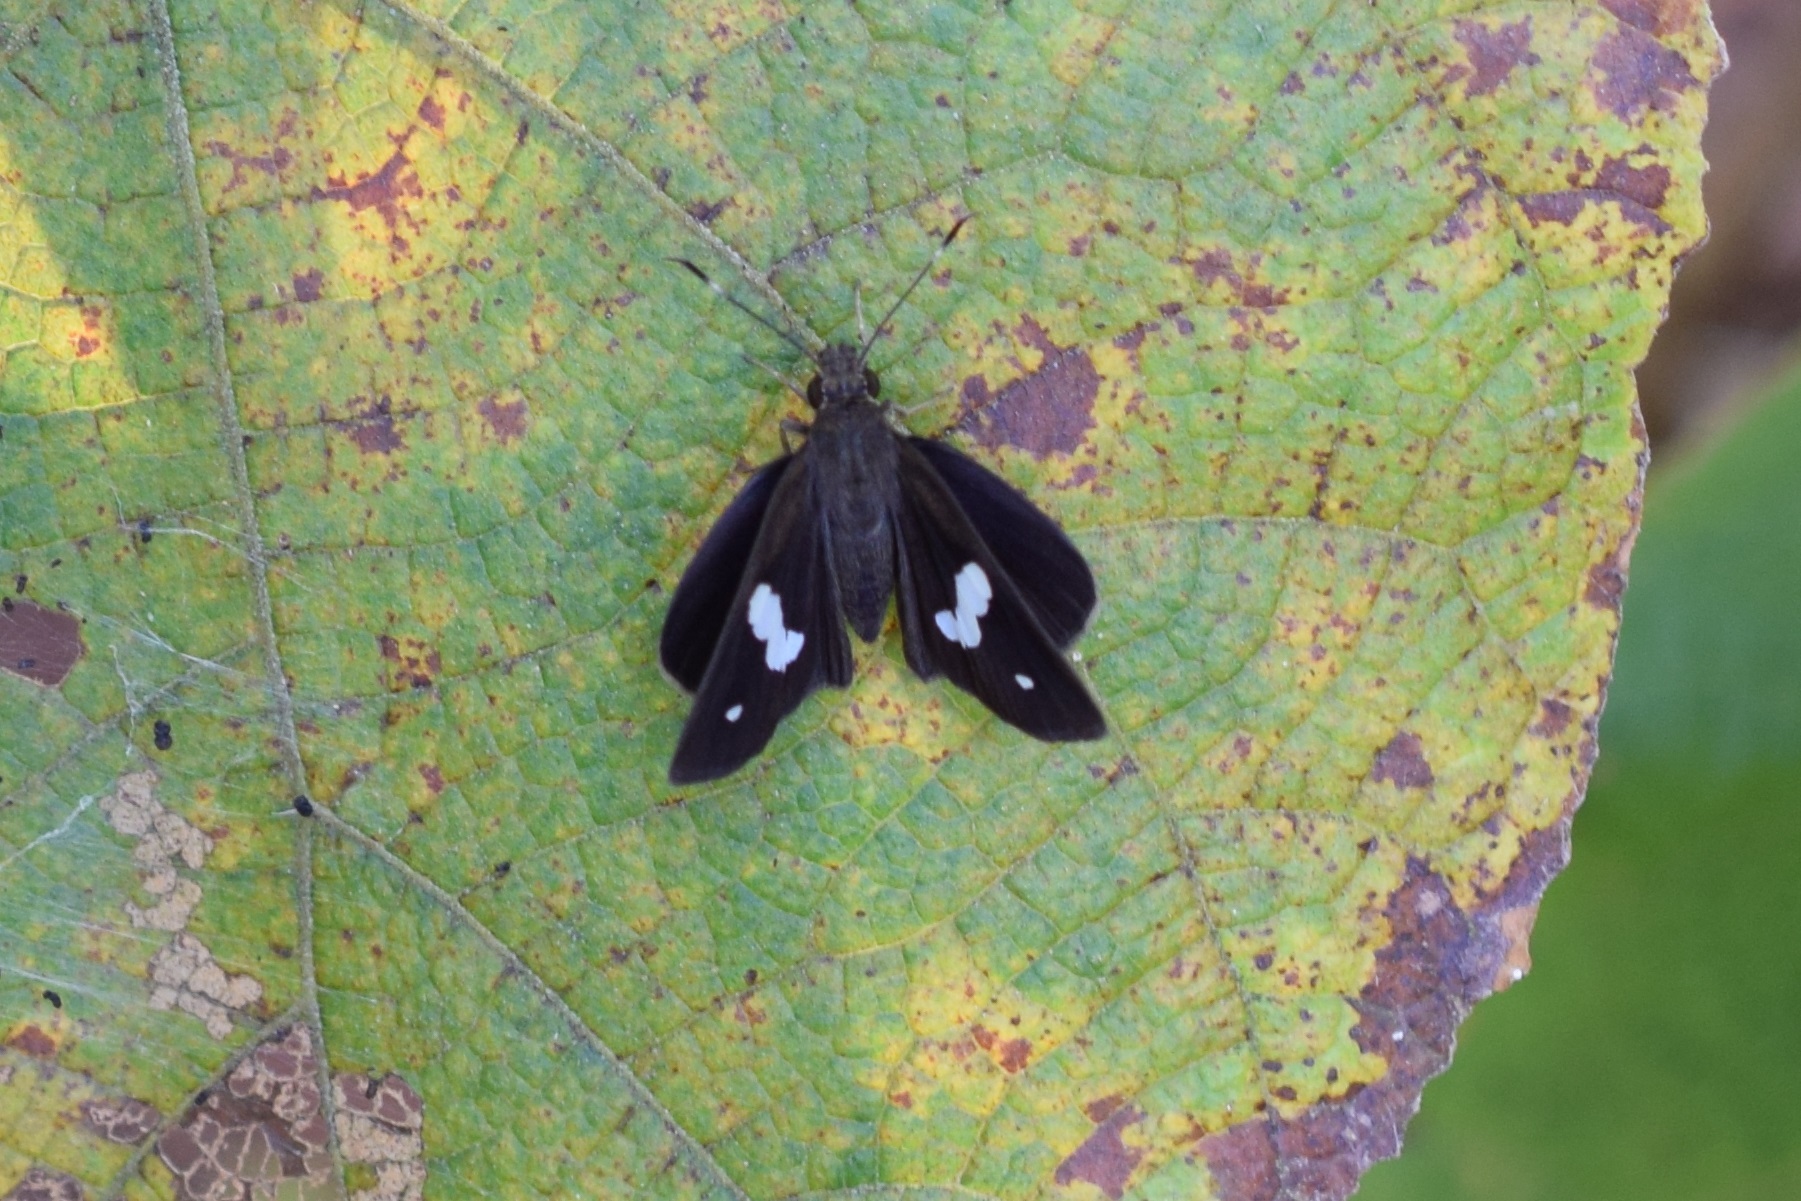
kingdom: Animalia
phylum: Arthropoda
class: Insecta
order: Lepidoptera
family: Hesperiidae
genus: Notocrypta
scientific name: Notocrypta paralysos
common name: Common banded demon
